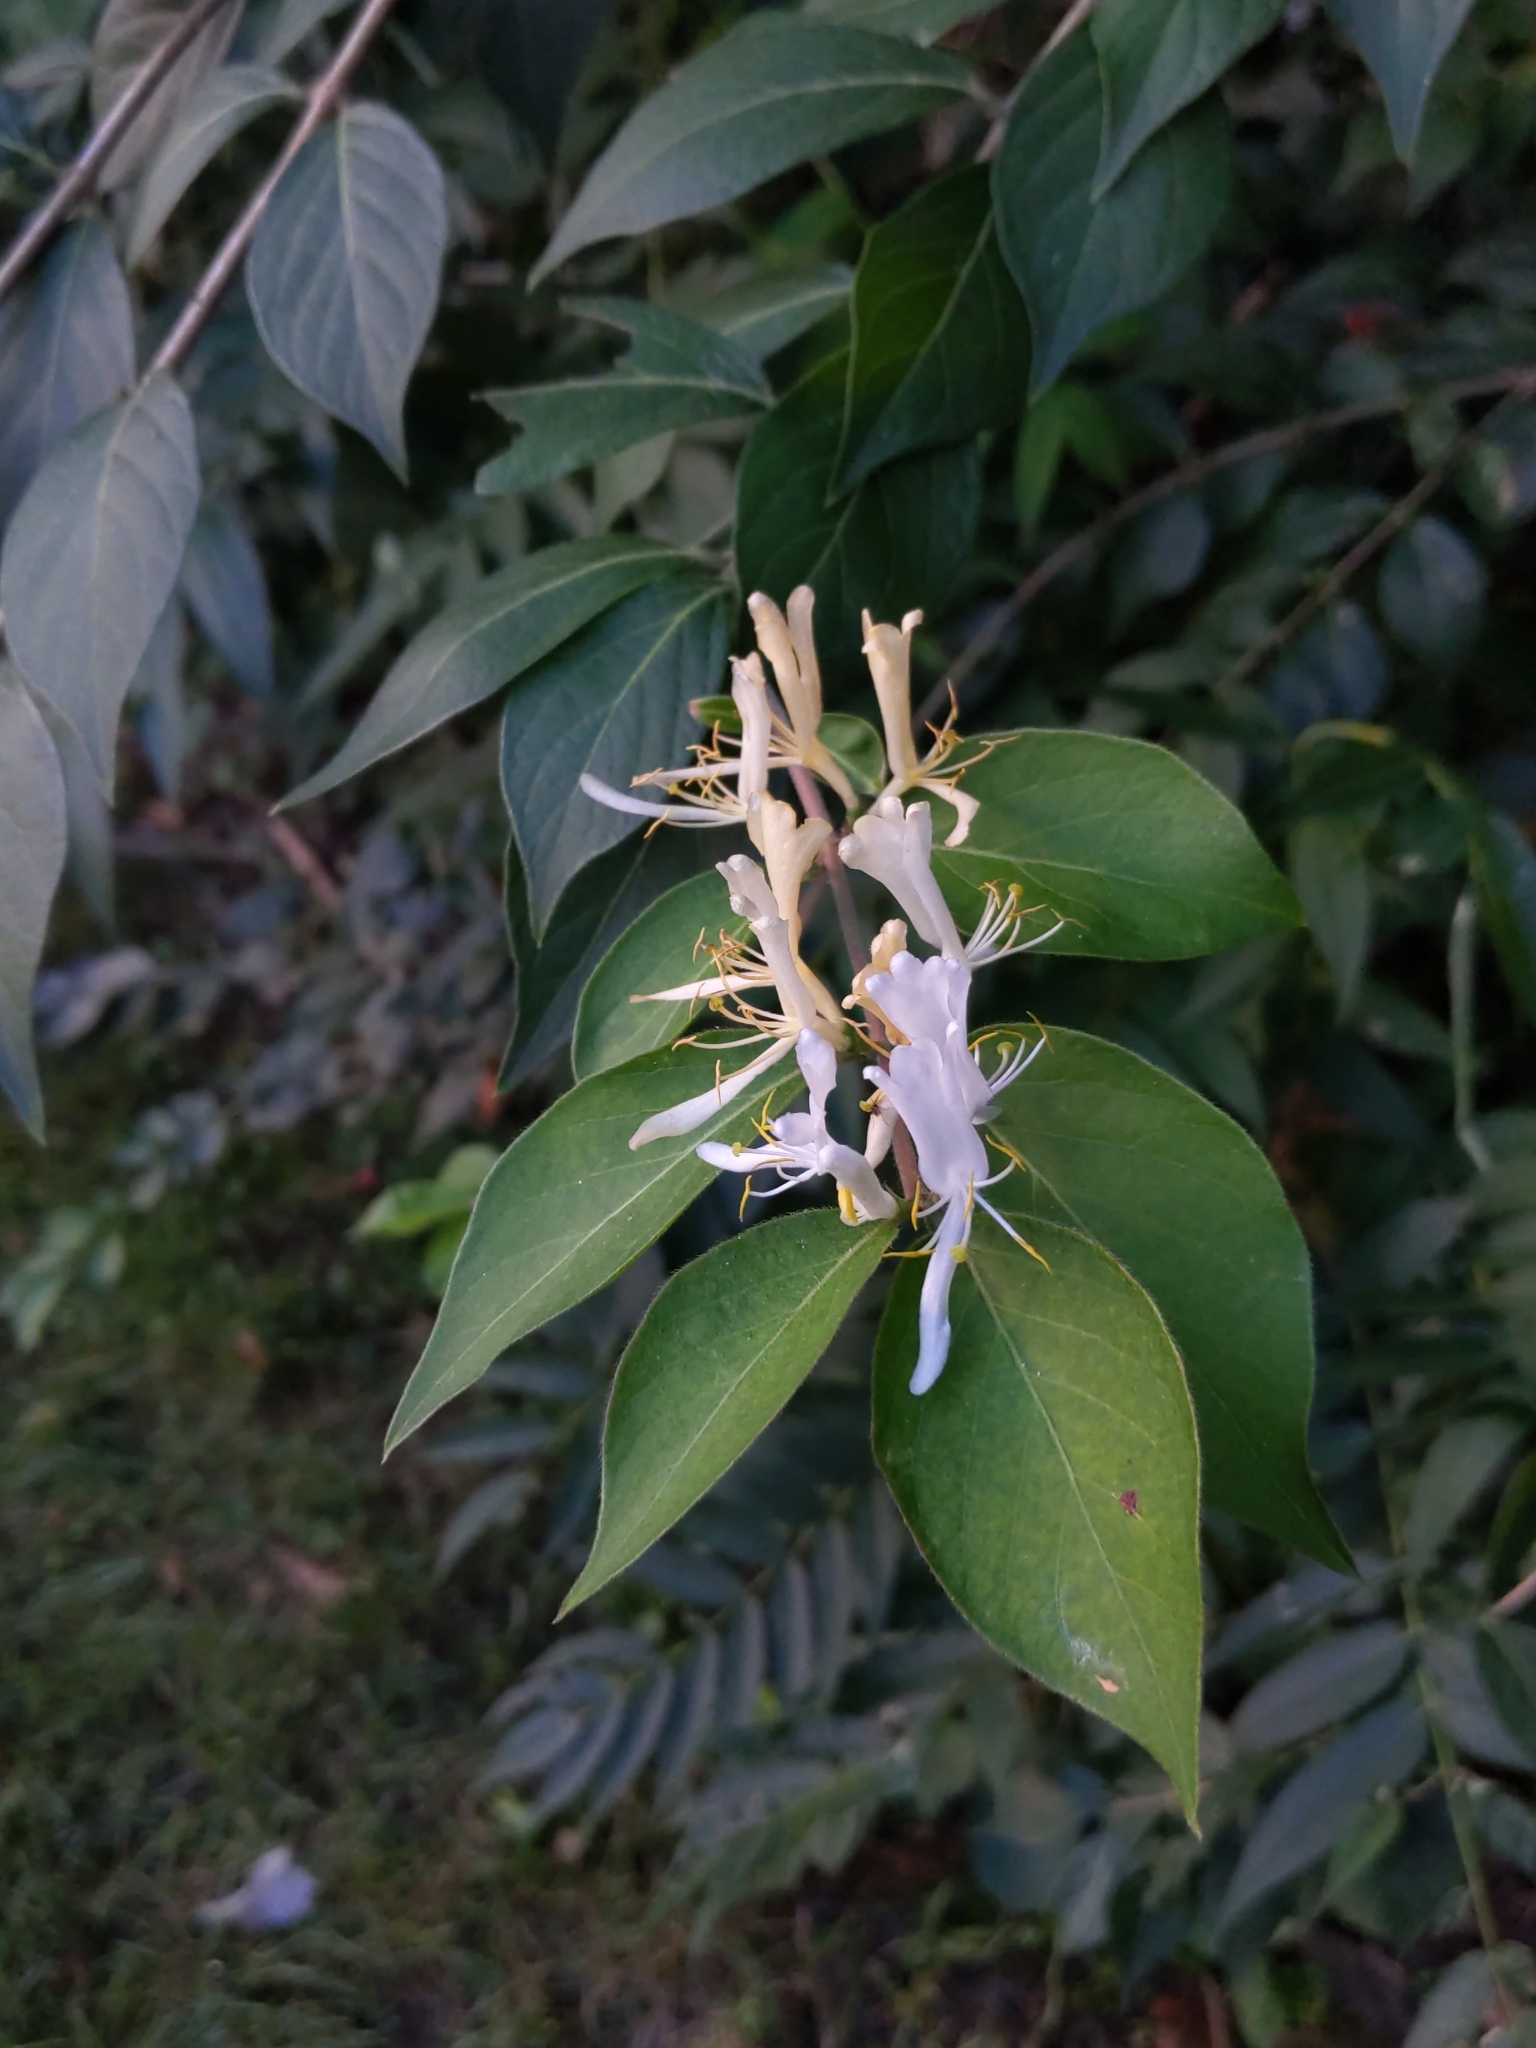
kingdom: Plantae
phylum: Tracheophyta
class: Magnoliopsida
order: Dipsacales
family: Caprifoliaceae
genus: Lonicera
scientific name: Lonicera maackii
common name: Amur honeysuckle
